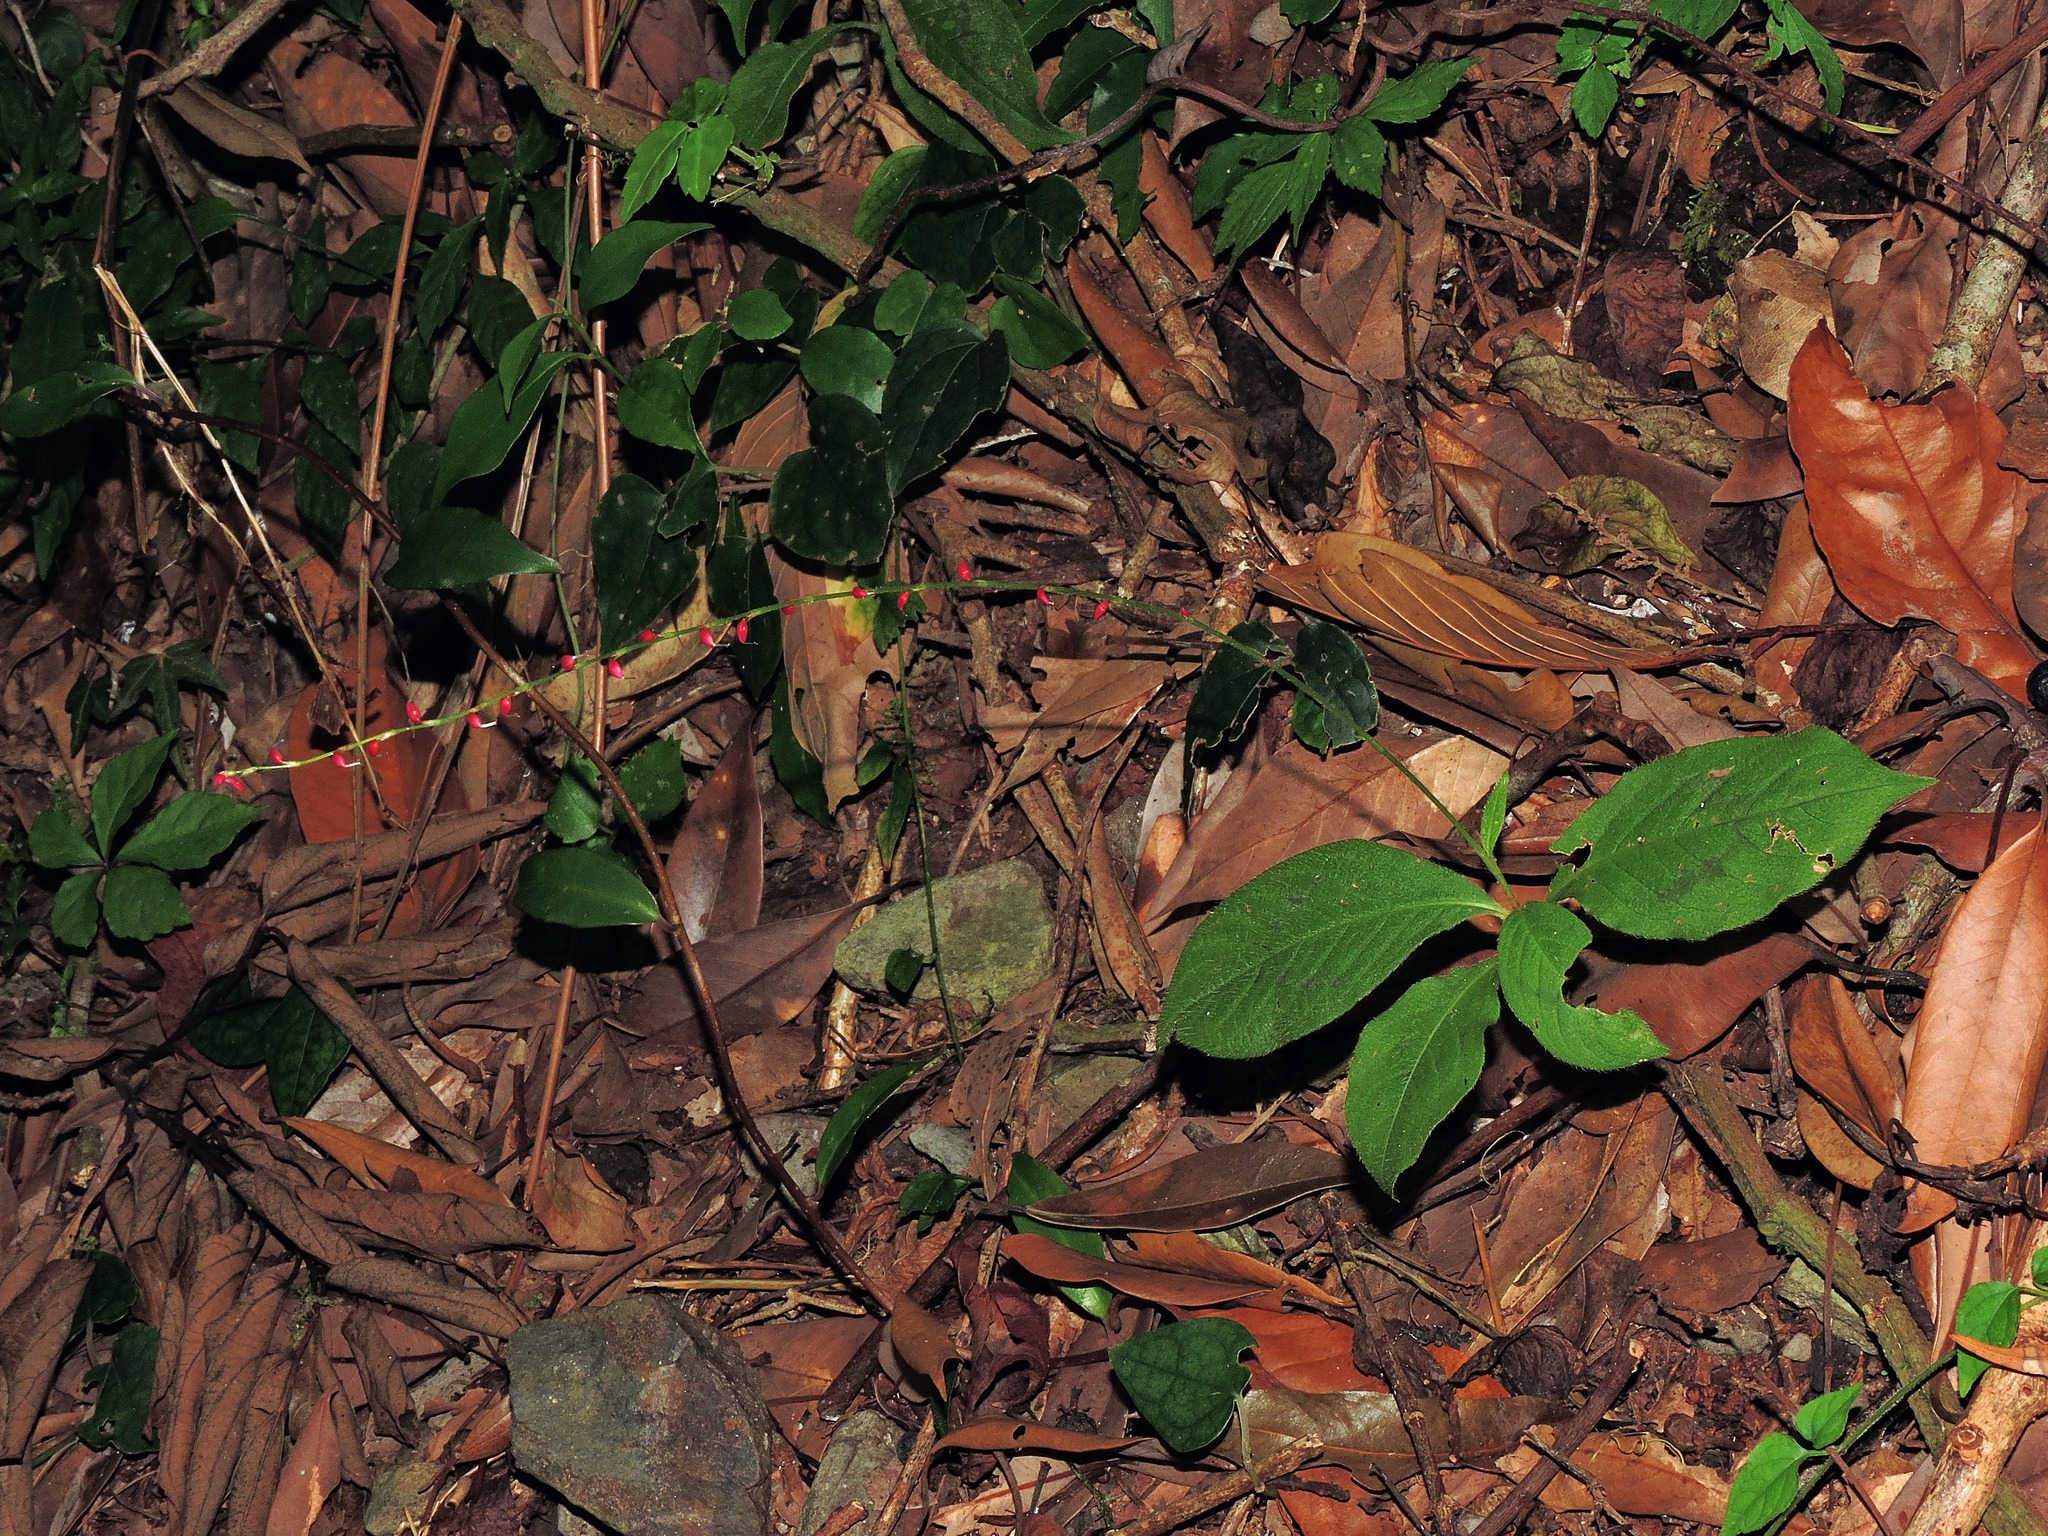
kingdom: Plantae
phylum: Tracheophyta
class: Magnoliopsida
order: Caryophyllales
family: Polygonaceae
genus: Persicaria
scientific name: Persicaria filiformis
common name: Asian jumpseed
